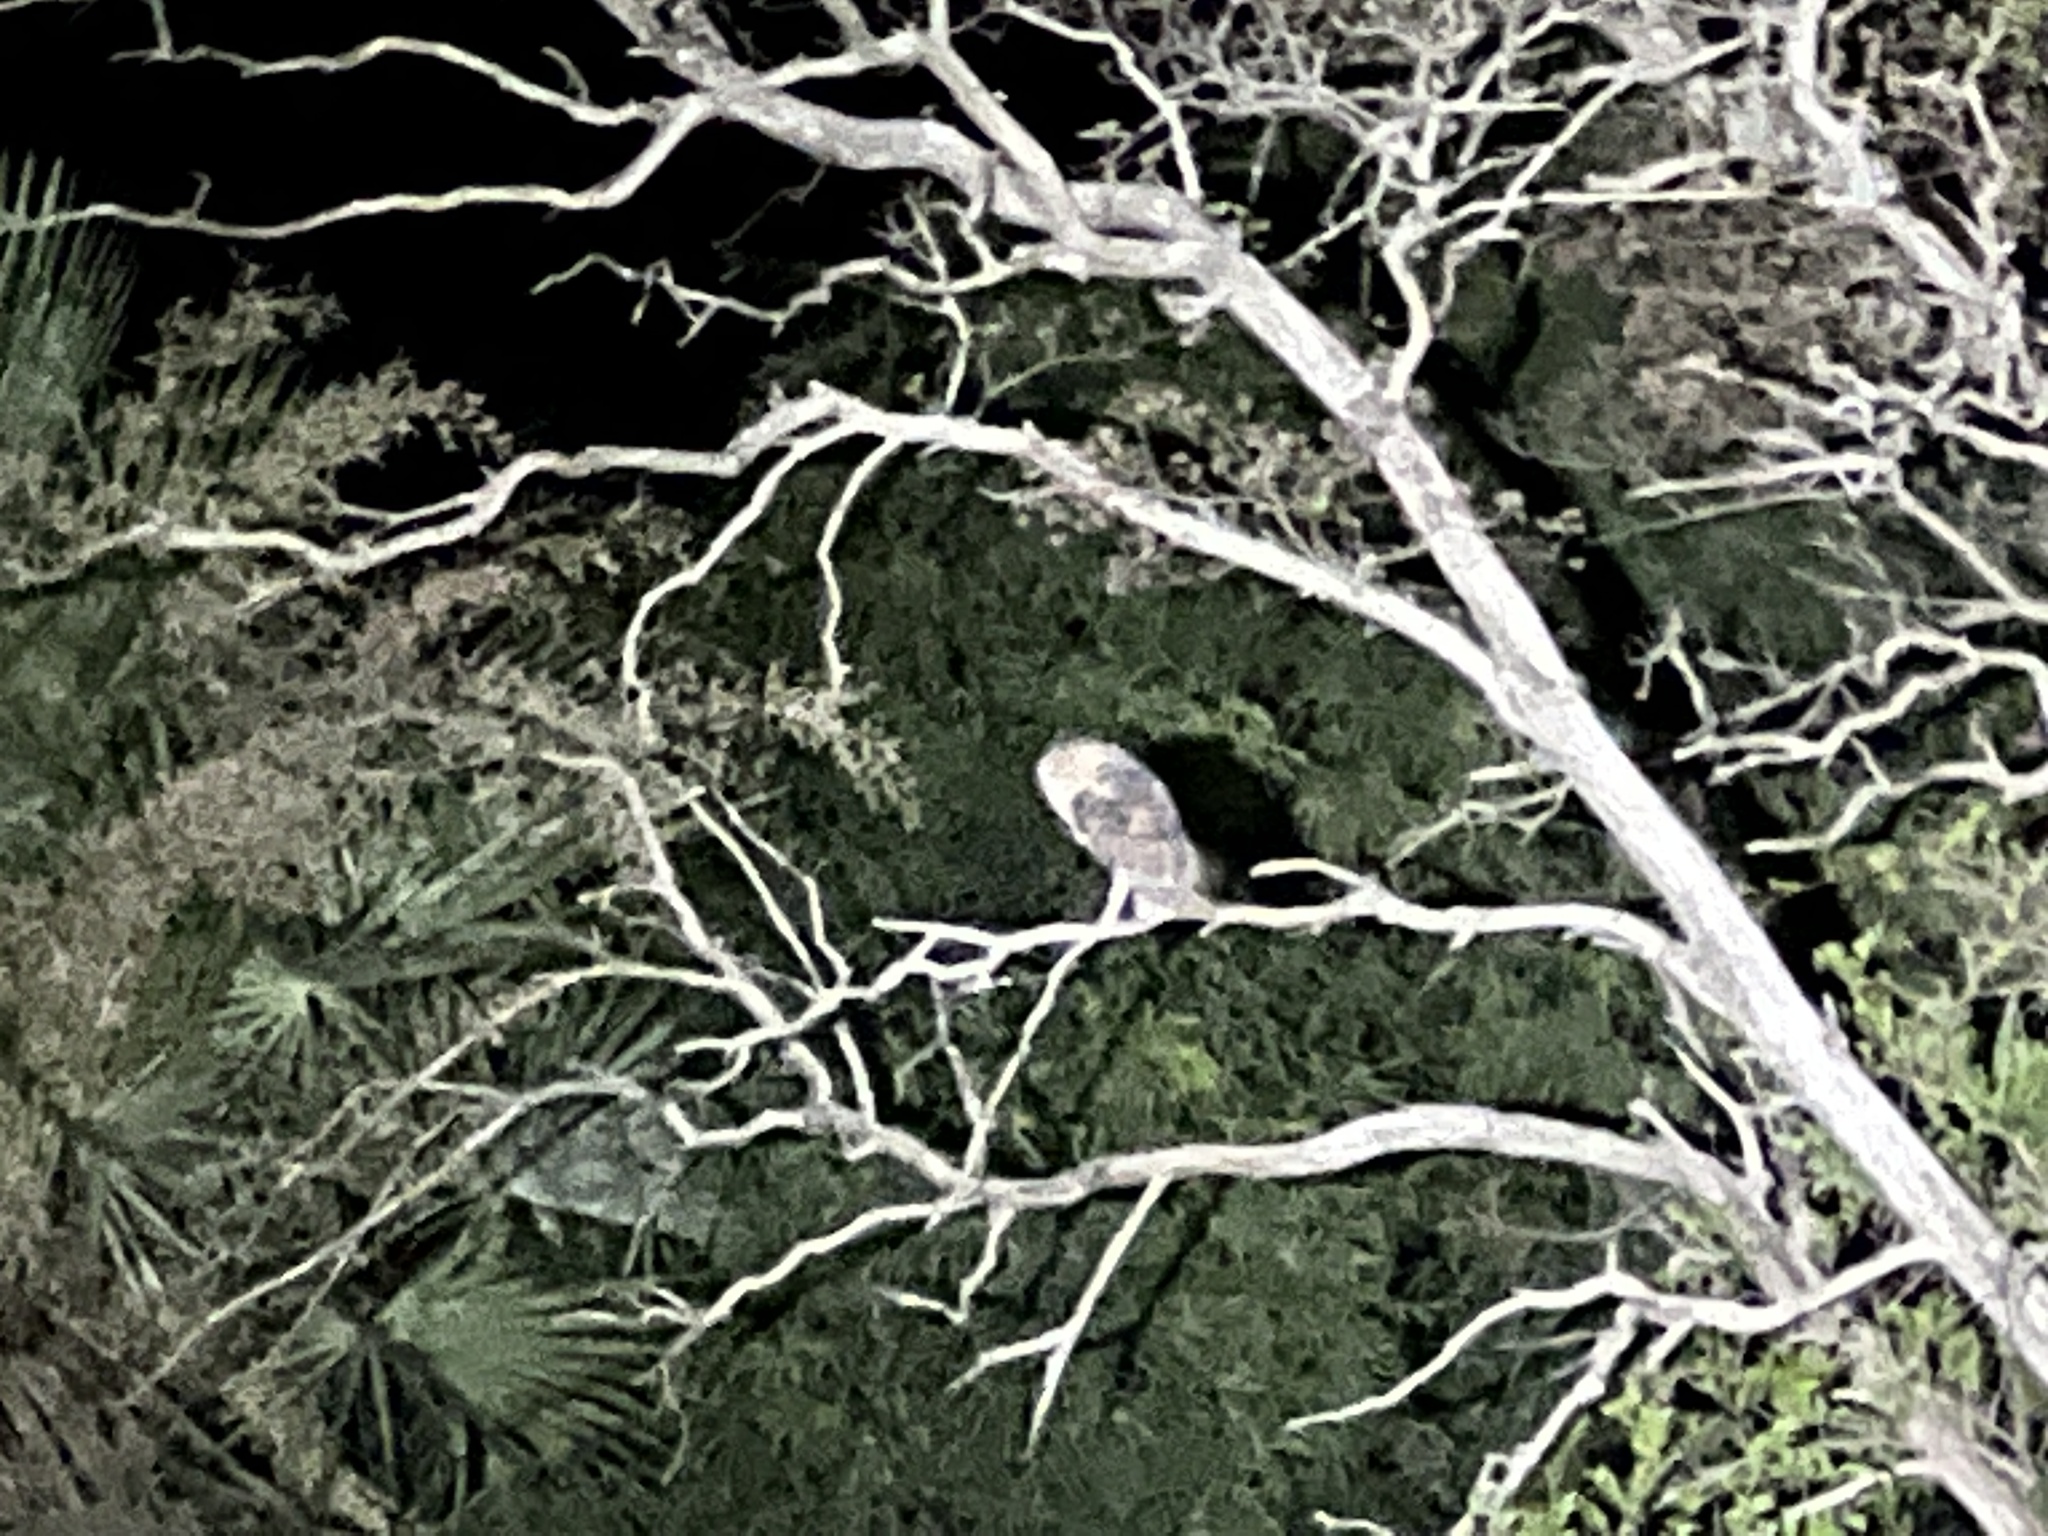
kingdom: Animalia
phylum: Chordata
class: Aves
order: Strigiformes
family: Tytonidae
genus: Tyto
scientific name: Tyto furcata
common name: American barn owl
